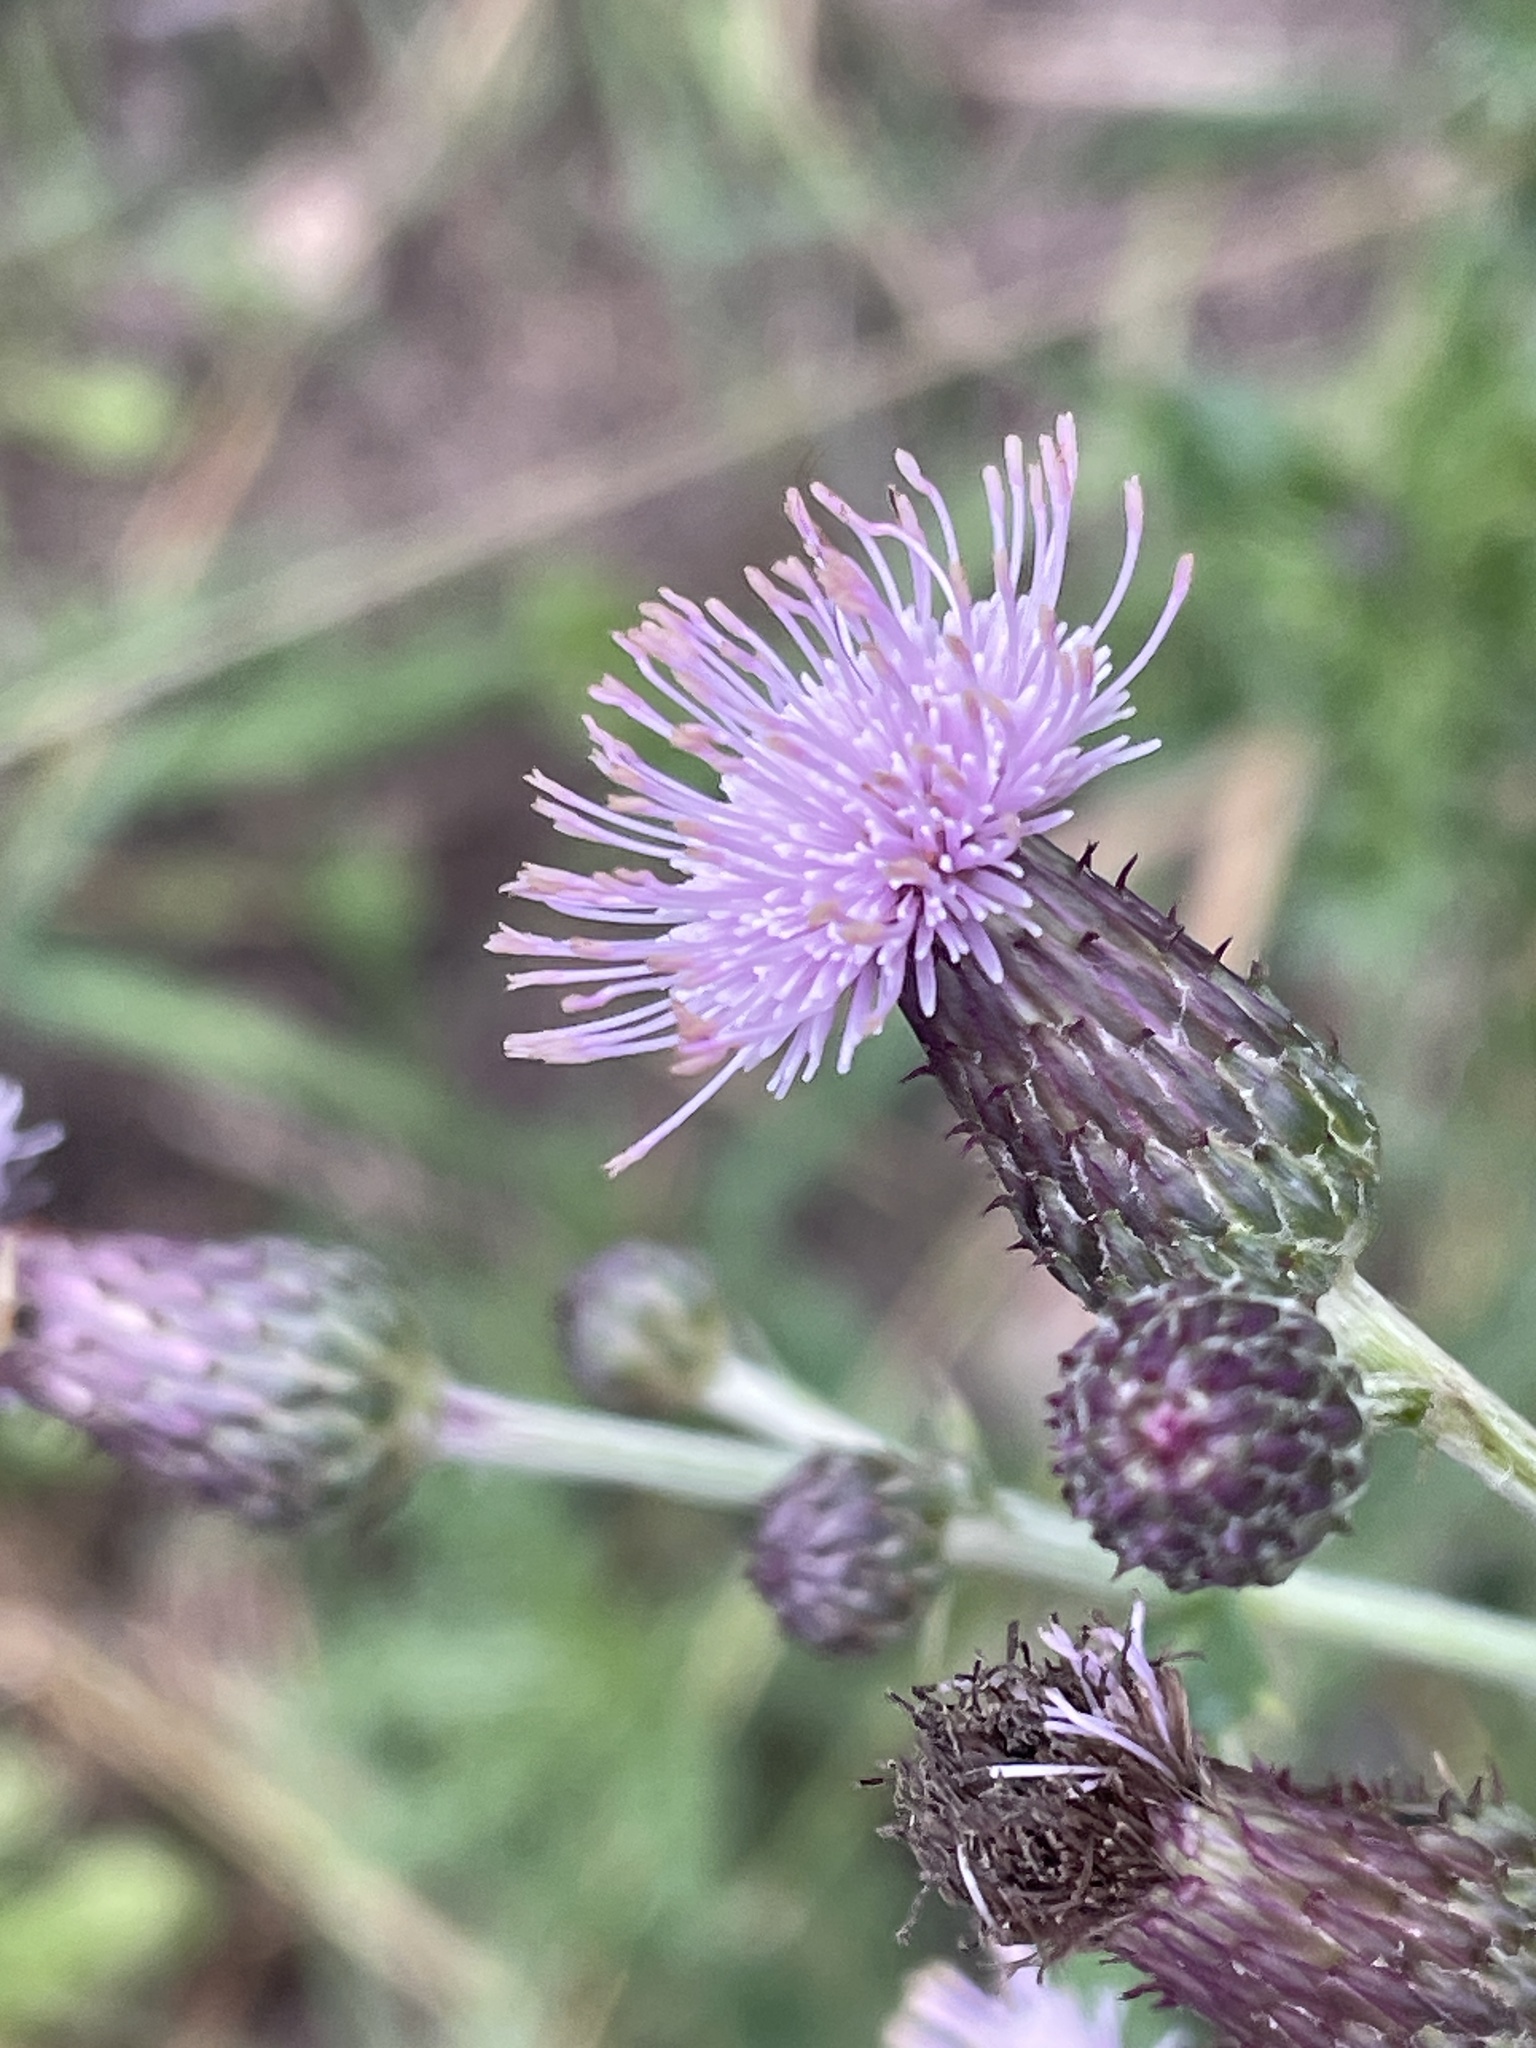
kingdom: Plantae
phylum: Tracheophyta
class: Magnoliopsida
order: Asterales
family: Asteraceae
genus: Cirsium
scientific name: Cirsium arvense
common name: Creeping thistle
